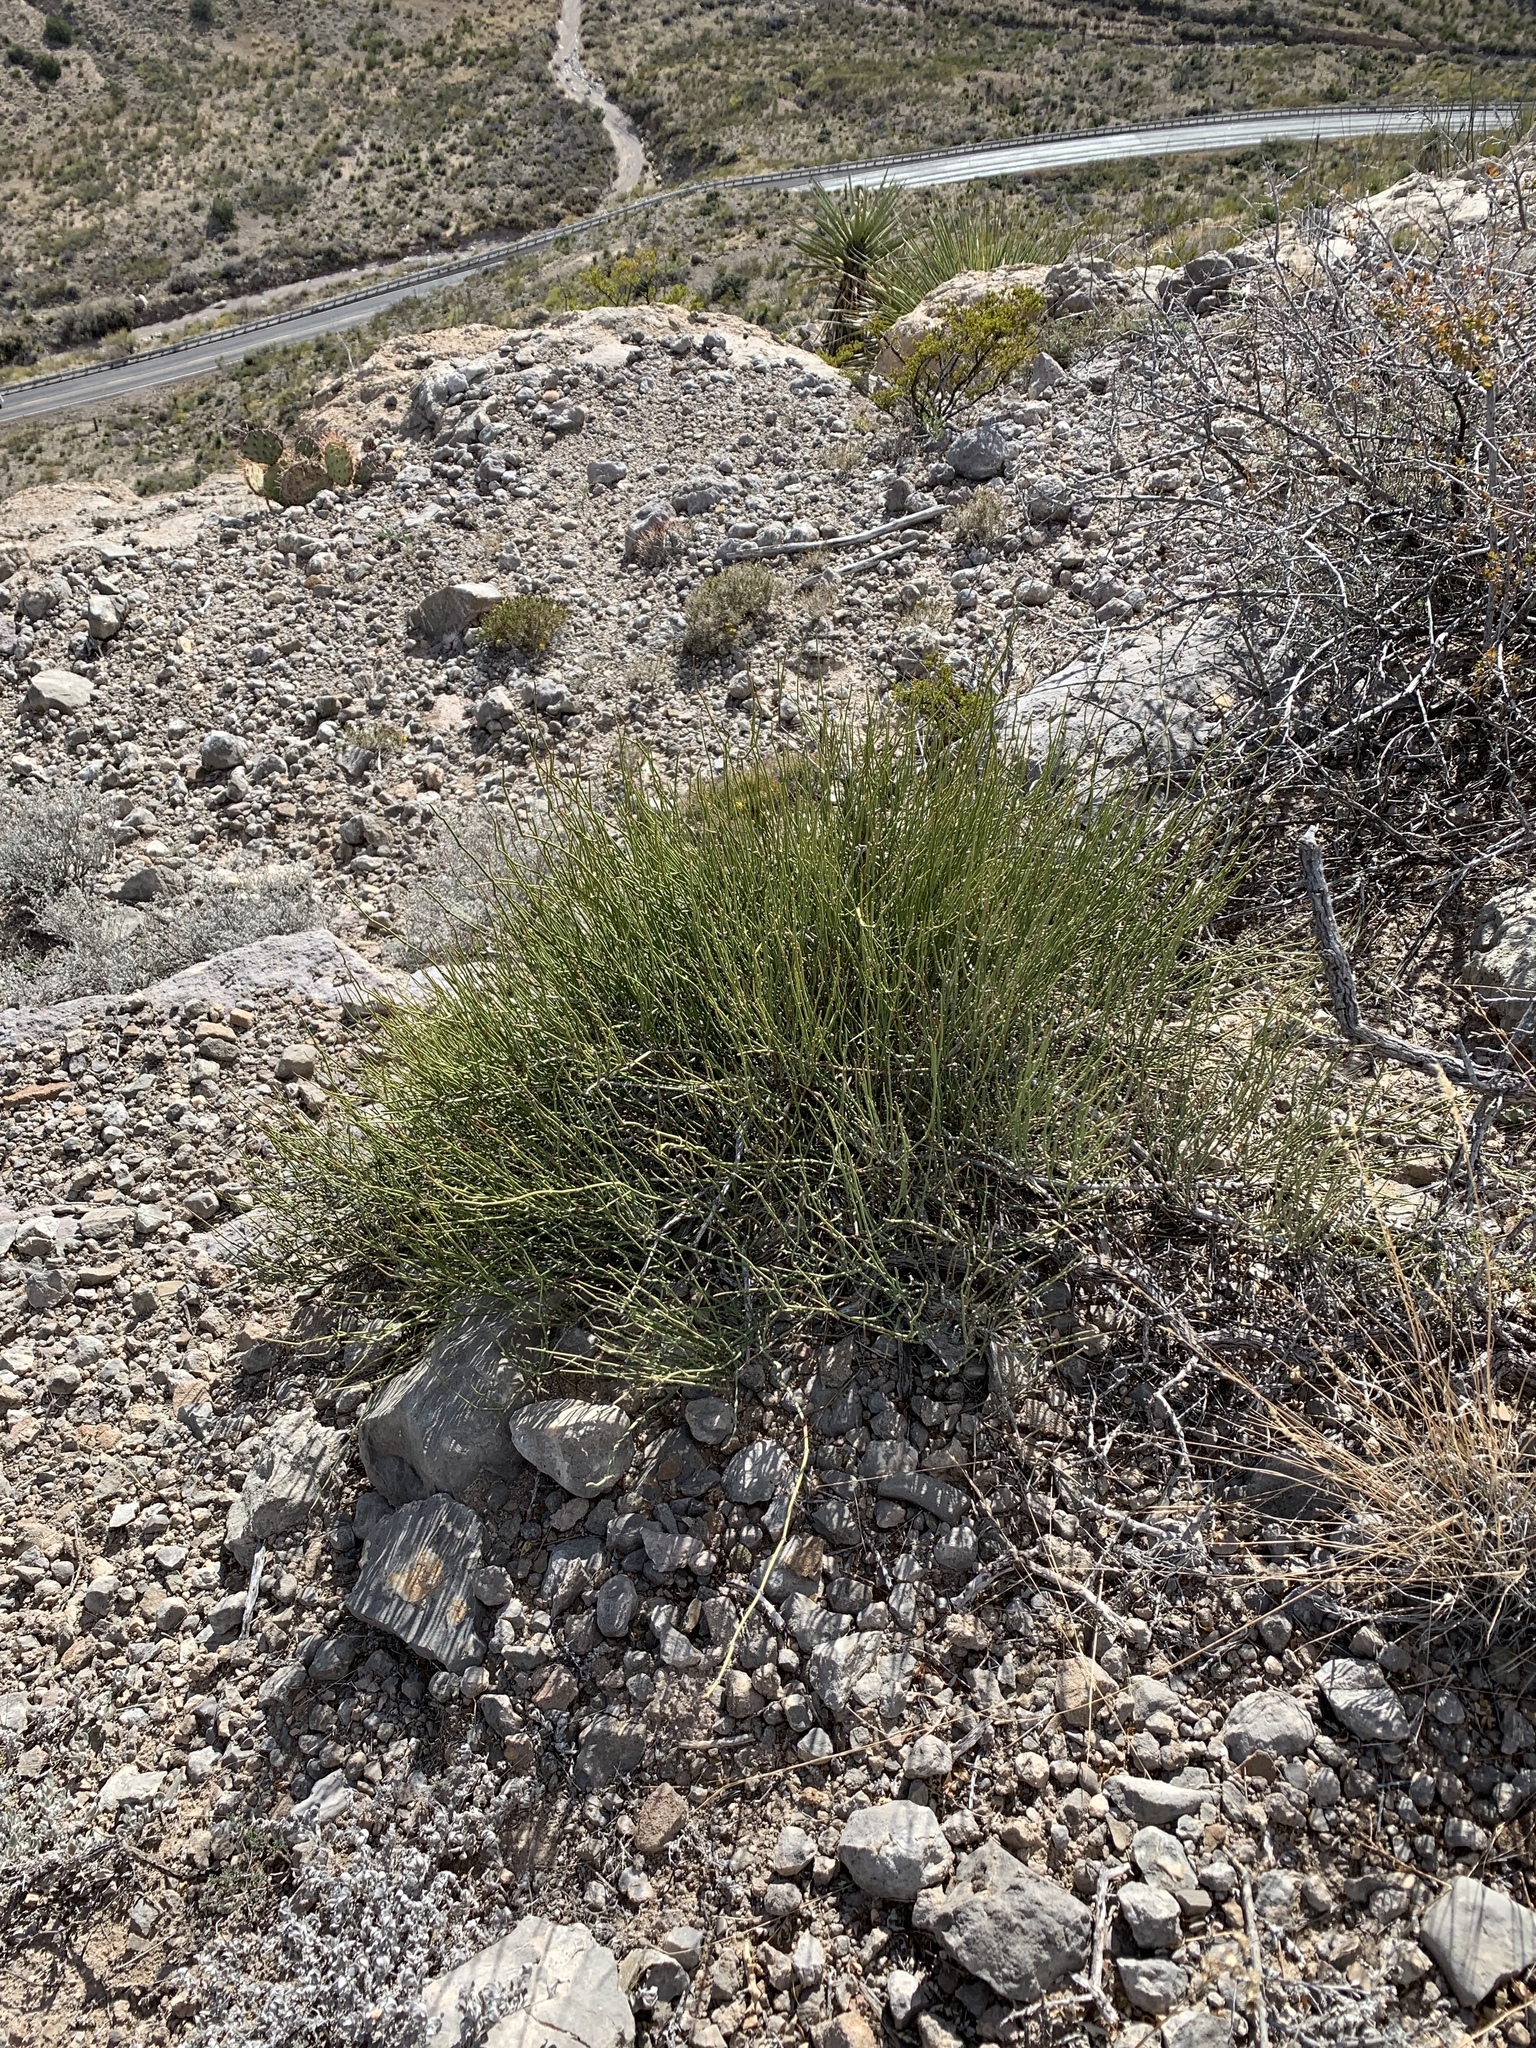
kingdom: Plantae
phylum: Tracheophyta
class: Gnetopsida
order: Ephedrales
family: Ephedraceae
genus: Ephedra
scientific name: Ephedra trifurca
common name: Mexican-tea
